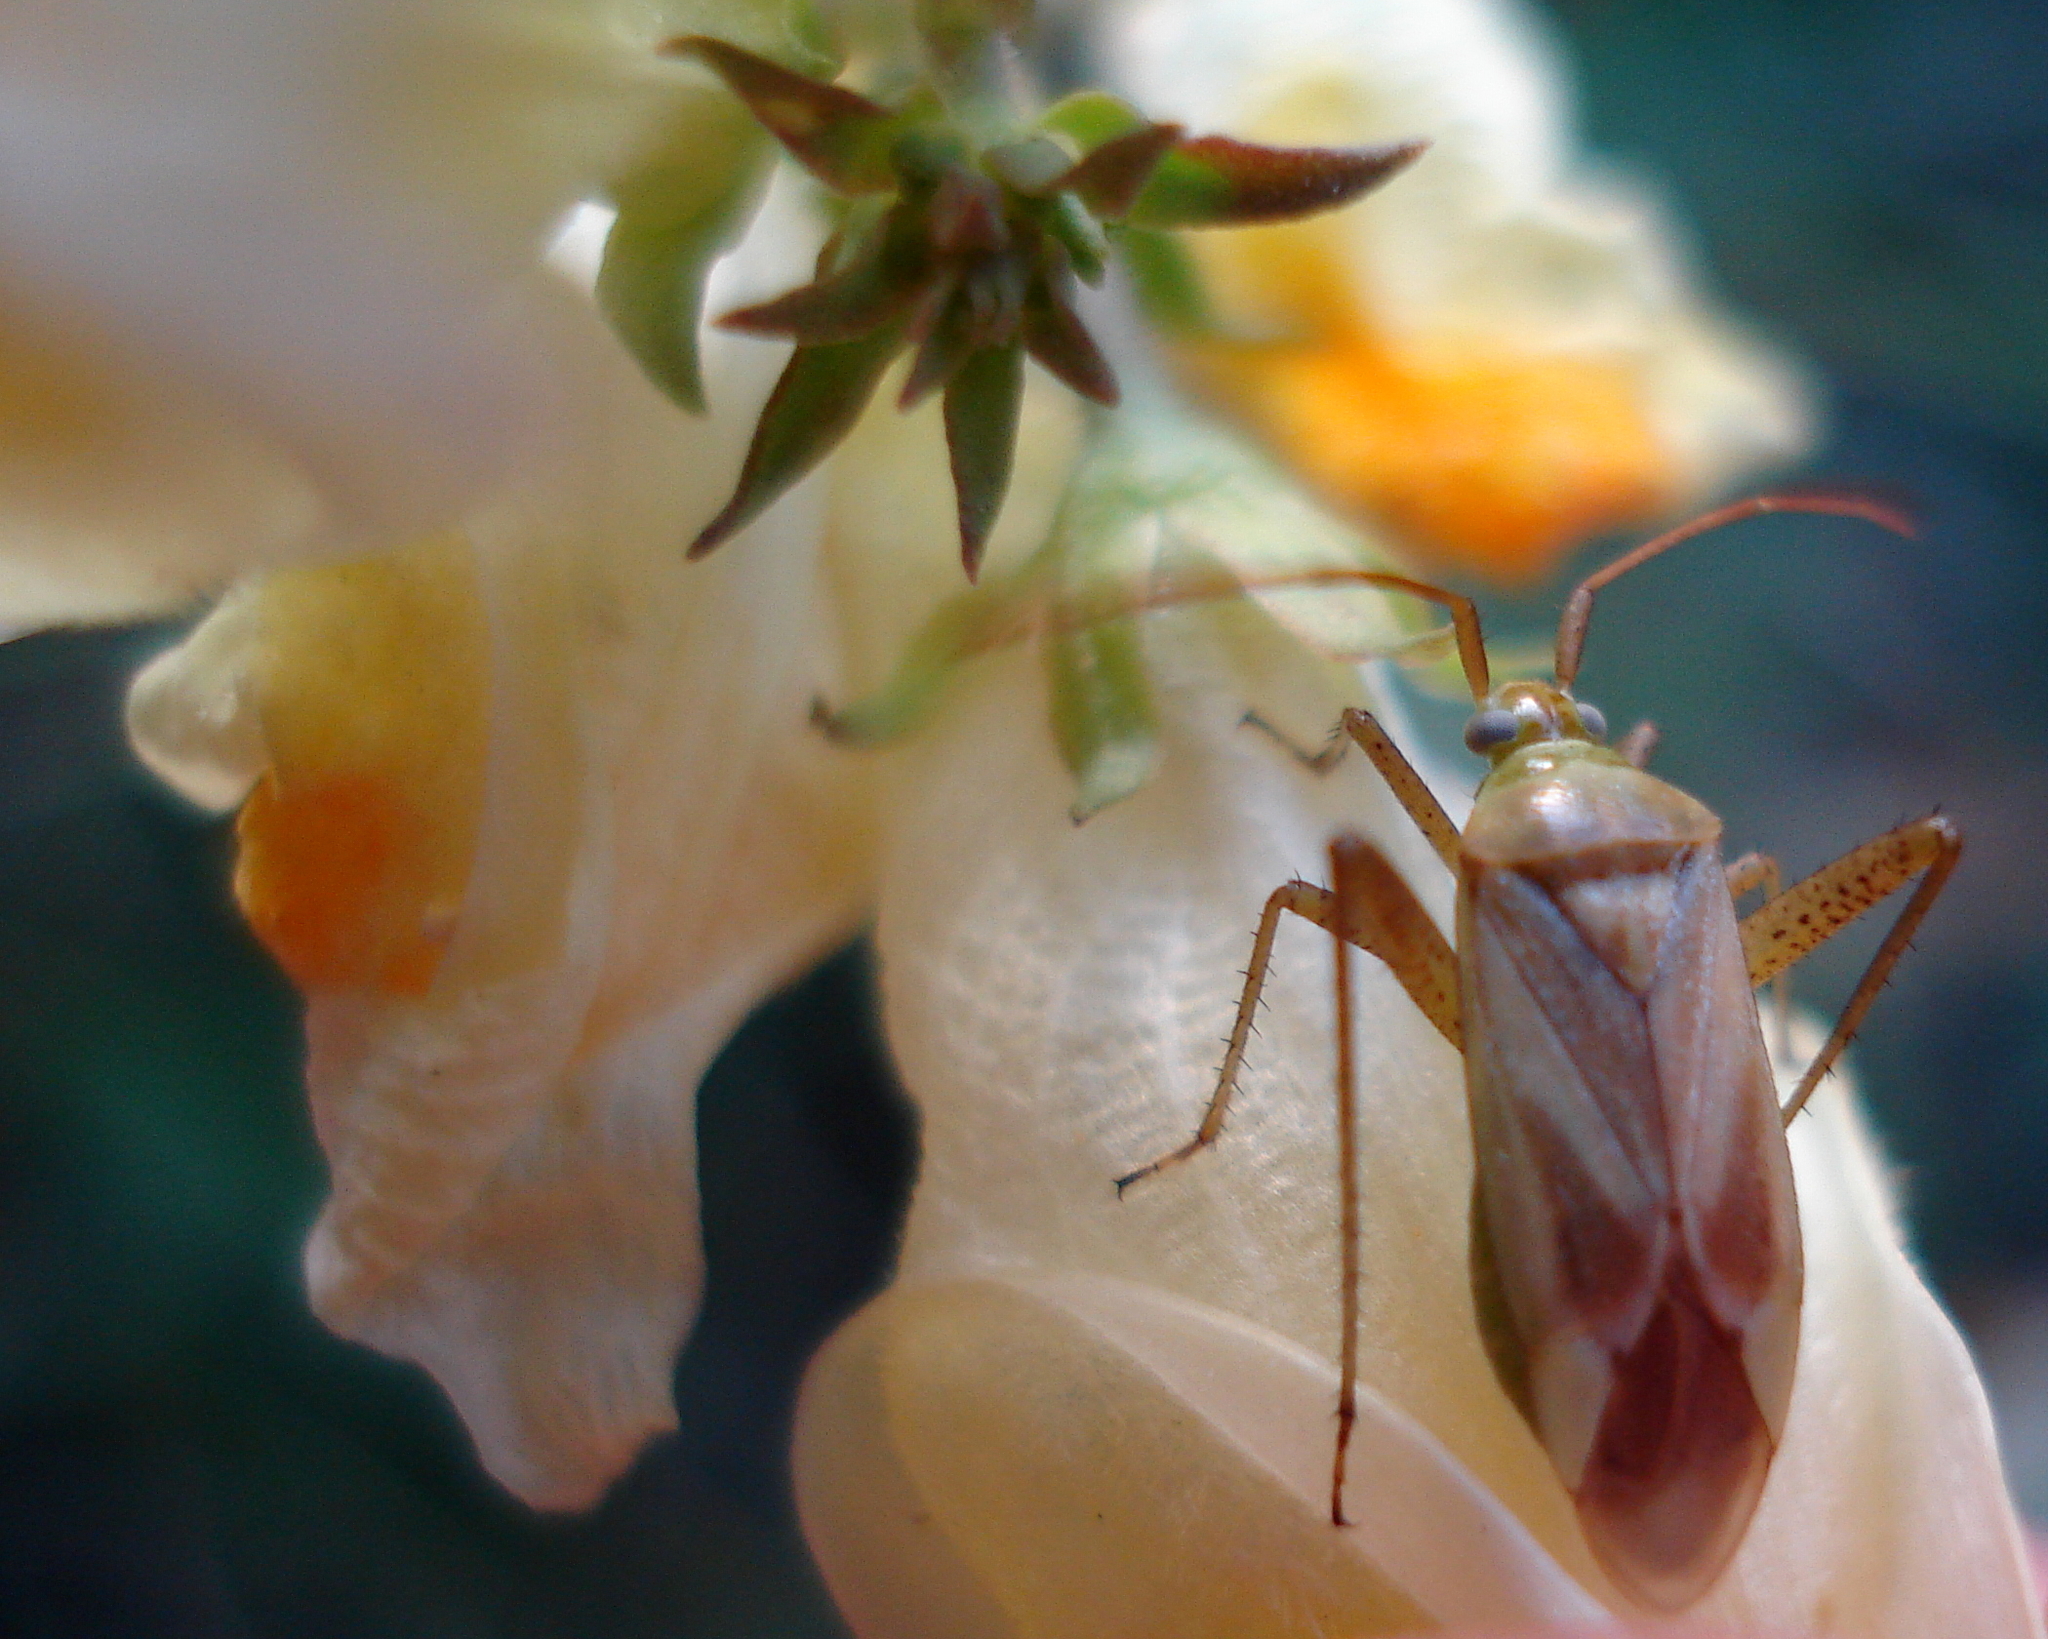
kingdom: Animalia
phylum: Arthropoda
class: Insecta
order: Hemiptera
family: Miridae
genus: Adelphocoris
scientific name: Adelphocoris lineolatus
